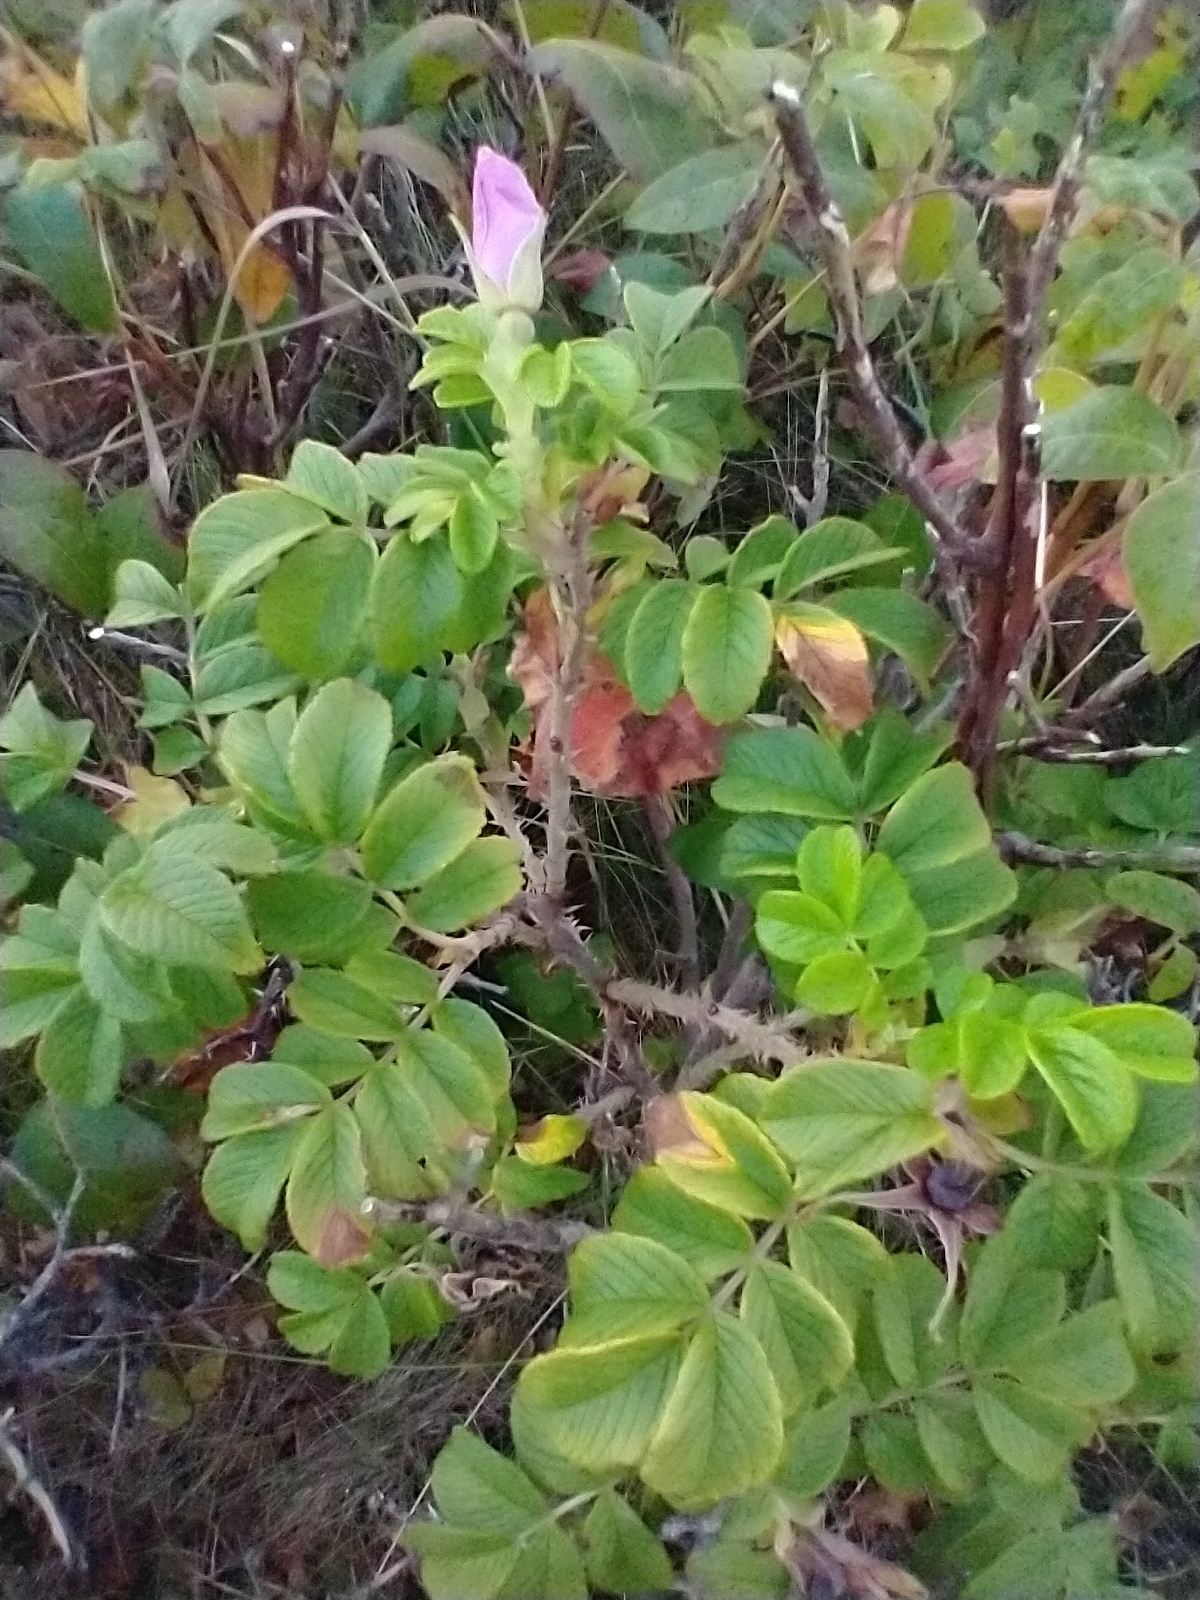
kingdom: Plantae
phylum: Tracheophyta
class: Magnoliopsida
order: Rosales
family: Rosaceae
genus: Rosa
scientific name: Rosa rugosa
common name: Japanese rose
